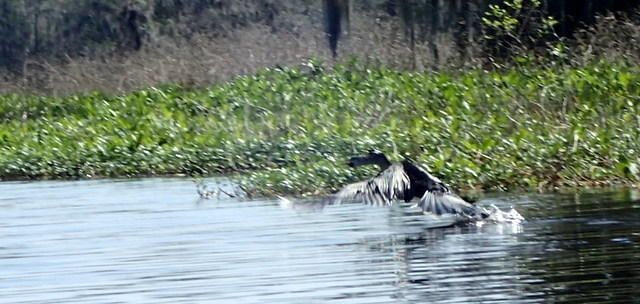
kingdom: Animalia
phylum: Chordata
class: Aves
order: Suliformes
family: Anhingidae
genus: Anhinga
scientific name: Anhinga anhinga
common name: Anhinga
